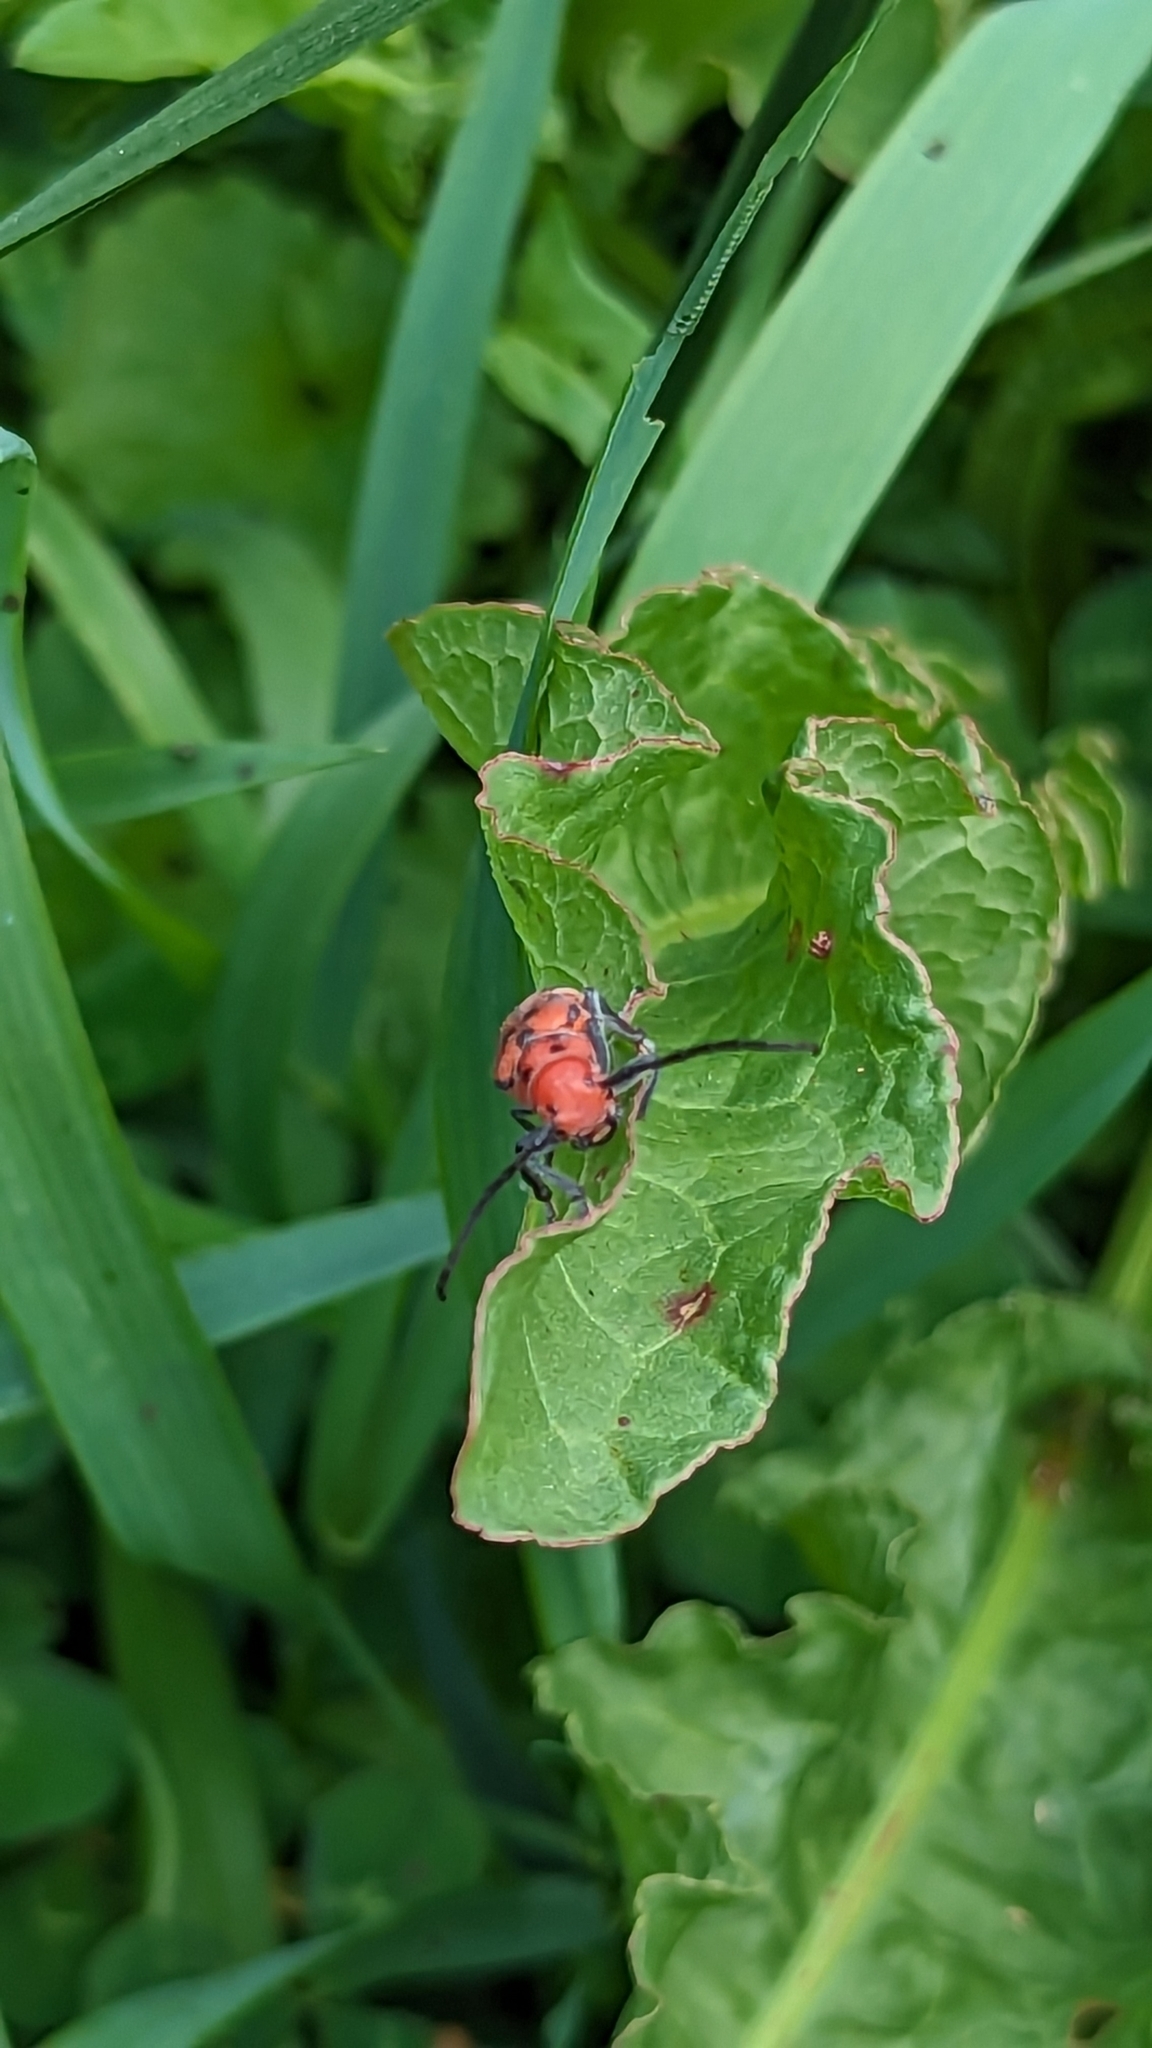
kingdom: Animalia
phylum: Arthropoda
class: Insecta
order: Coleoptera
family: Cerambycidae
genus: Tetraopes
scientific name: Tetraopes tetrophthalmus
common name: Red milkweed beetle
